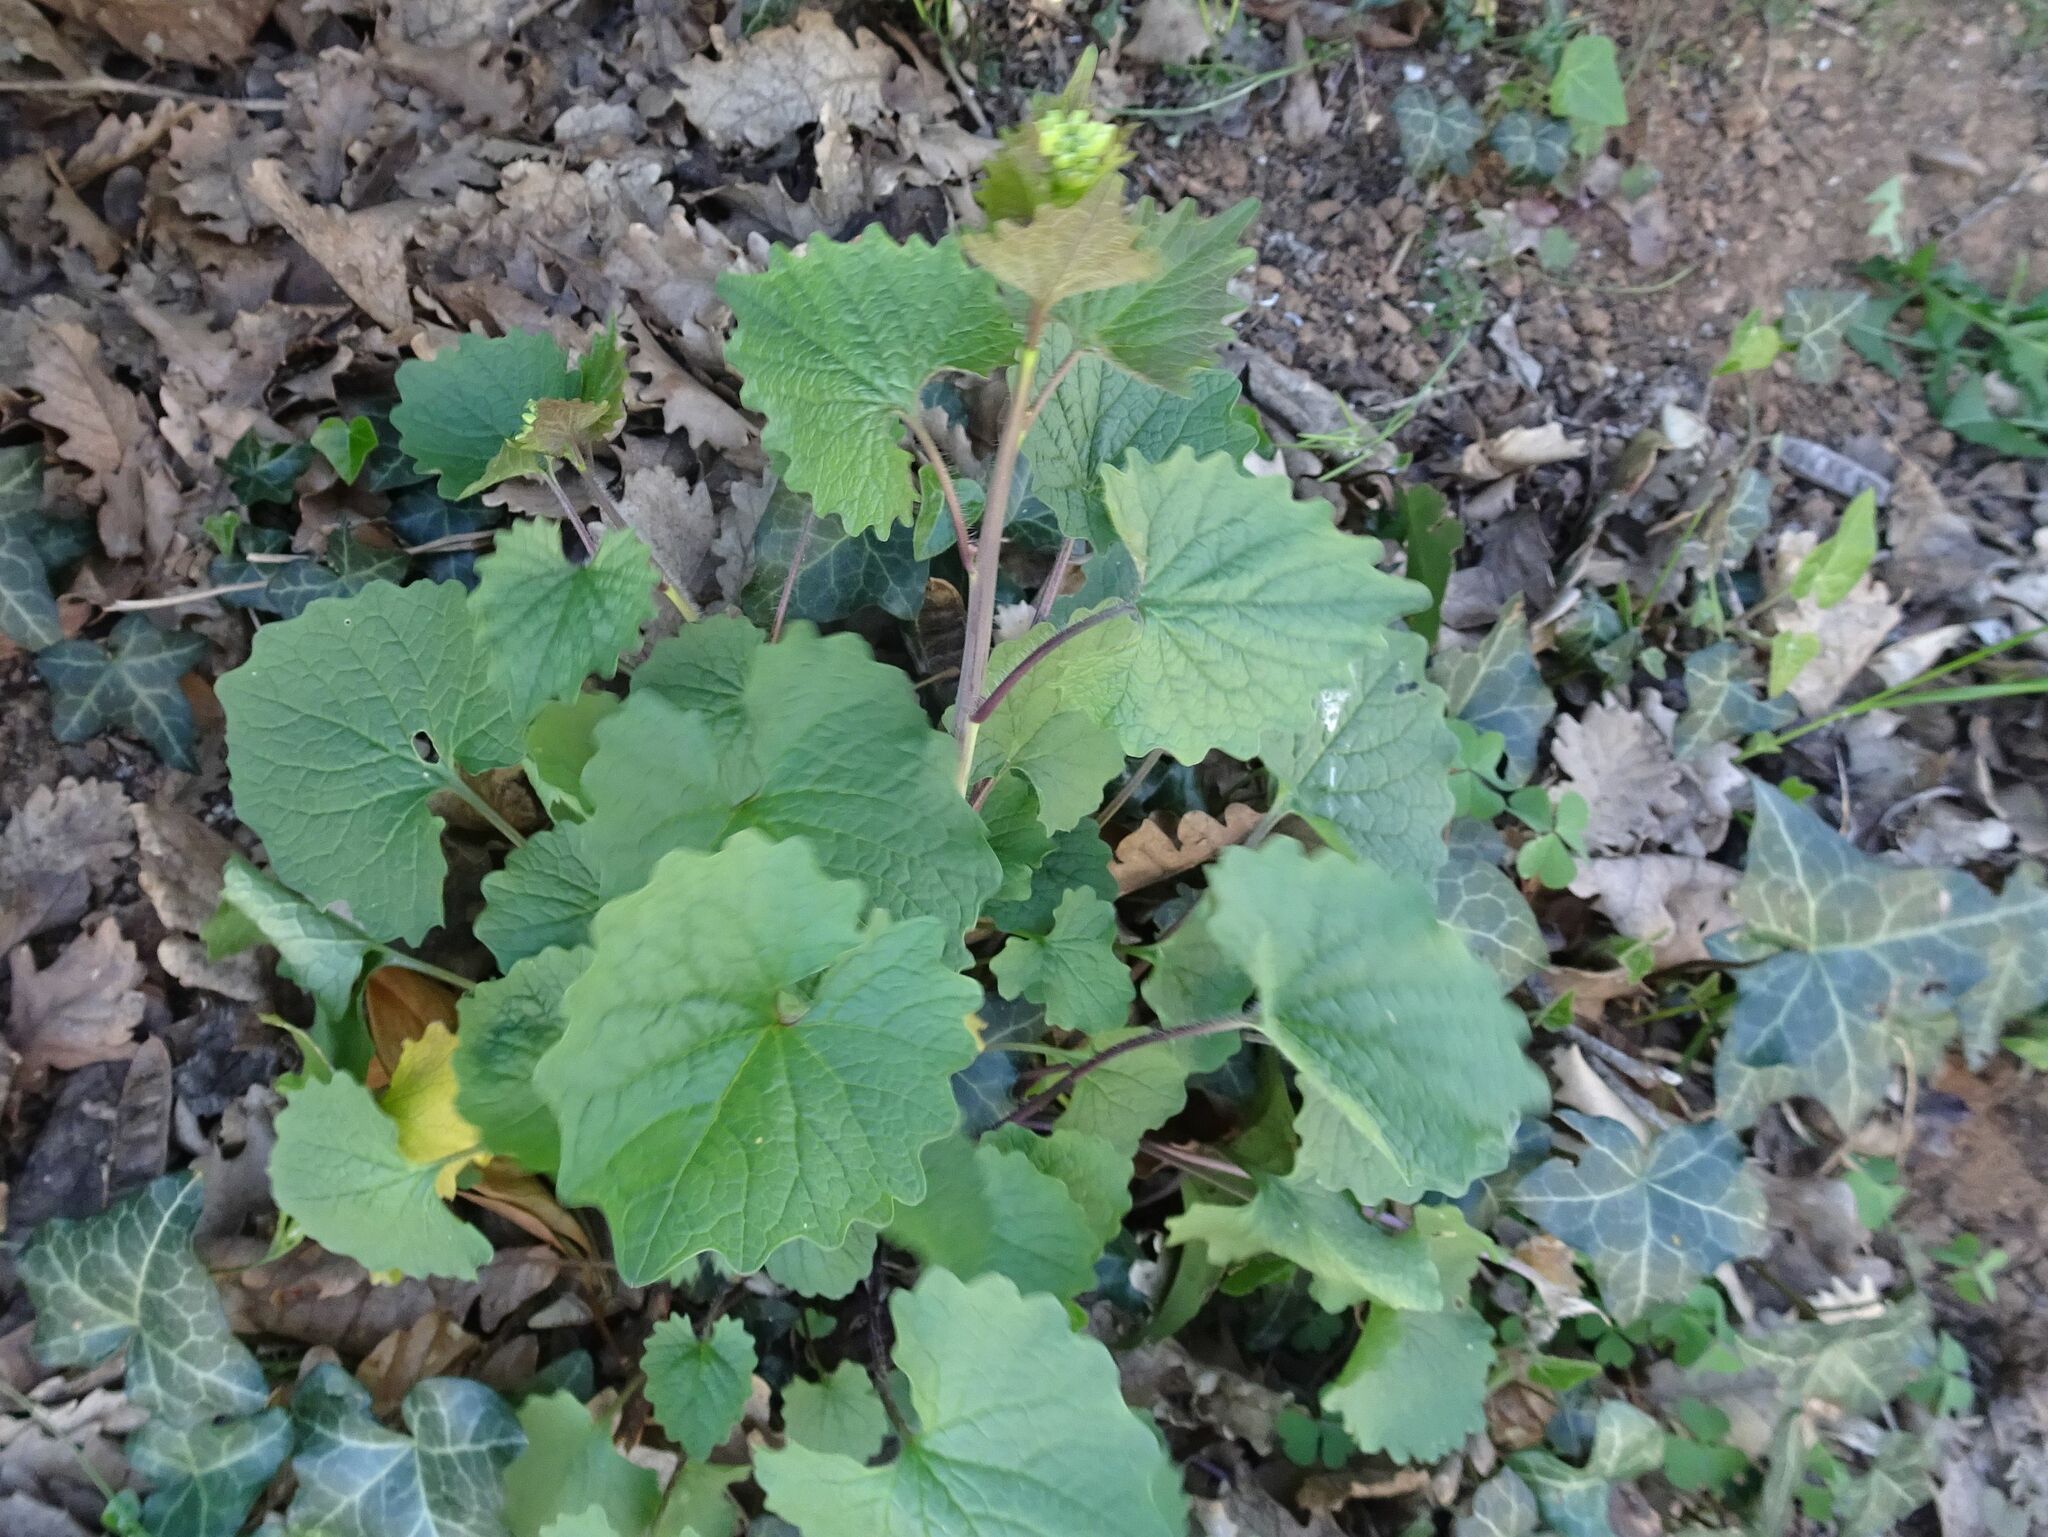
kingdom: Plantae
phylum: Tracheophyta
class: Magnoliopsida
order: Brassicales
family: Brassicaceae
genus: Alliaria
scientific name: Alliaria petiolata
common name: Garlic mustard
